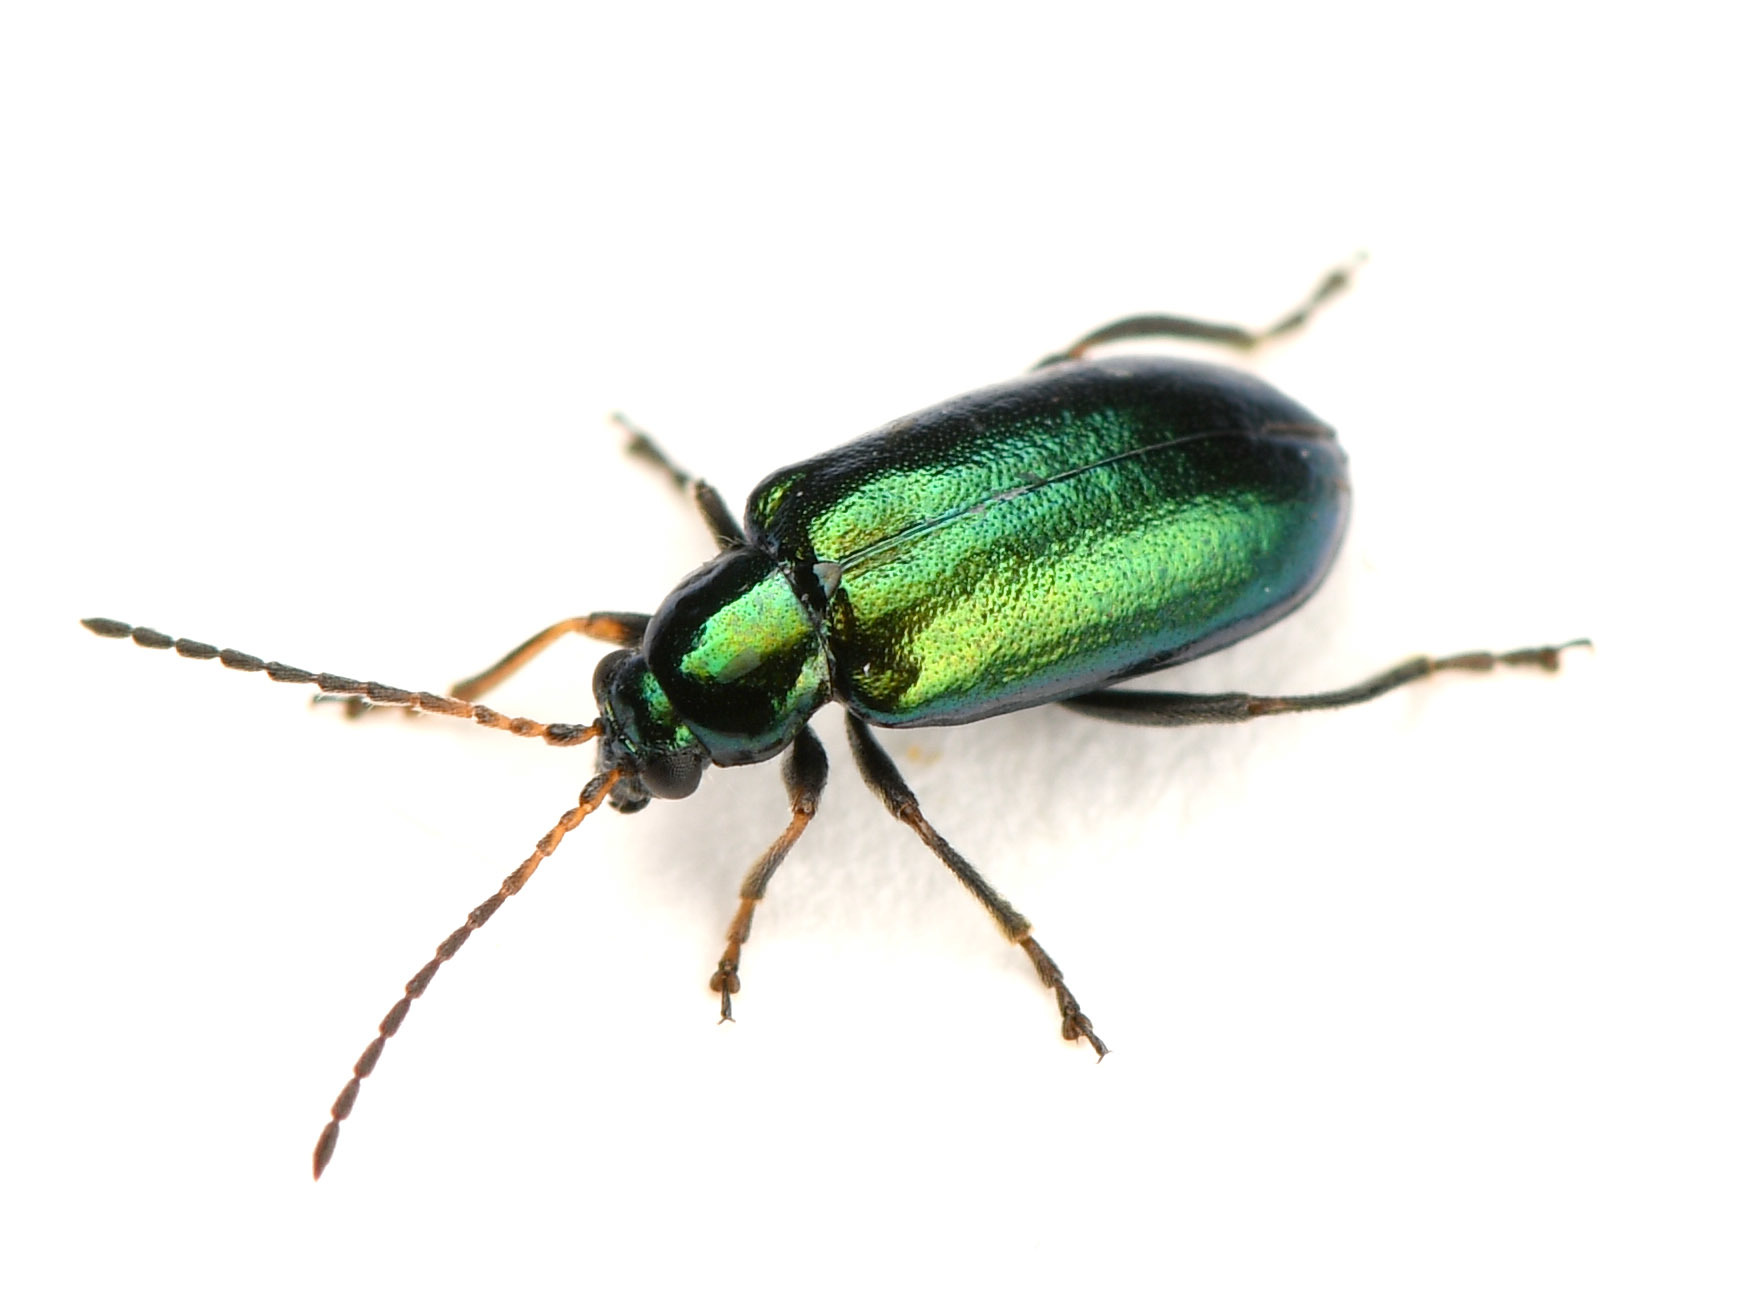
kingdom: Animalia
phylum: Arthropoda
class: Insecta
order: Coleoptera
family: Chrysomelidae
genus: Scelolyperus
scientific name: Scelolyperus schwarzi
